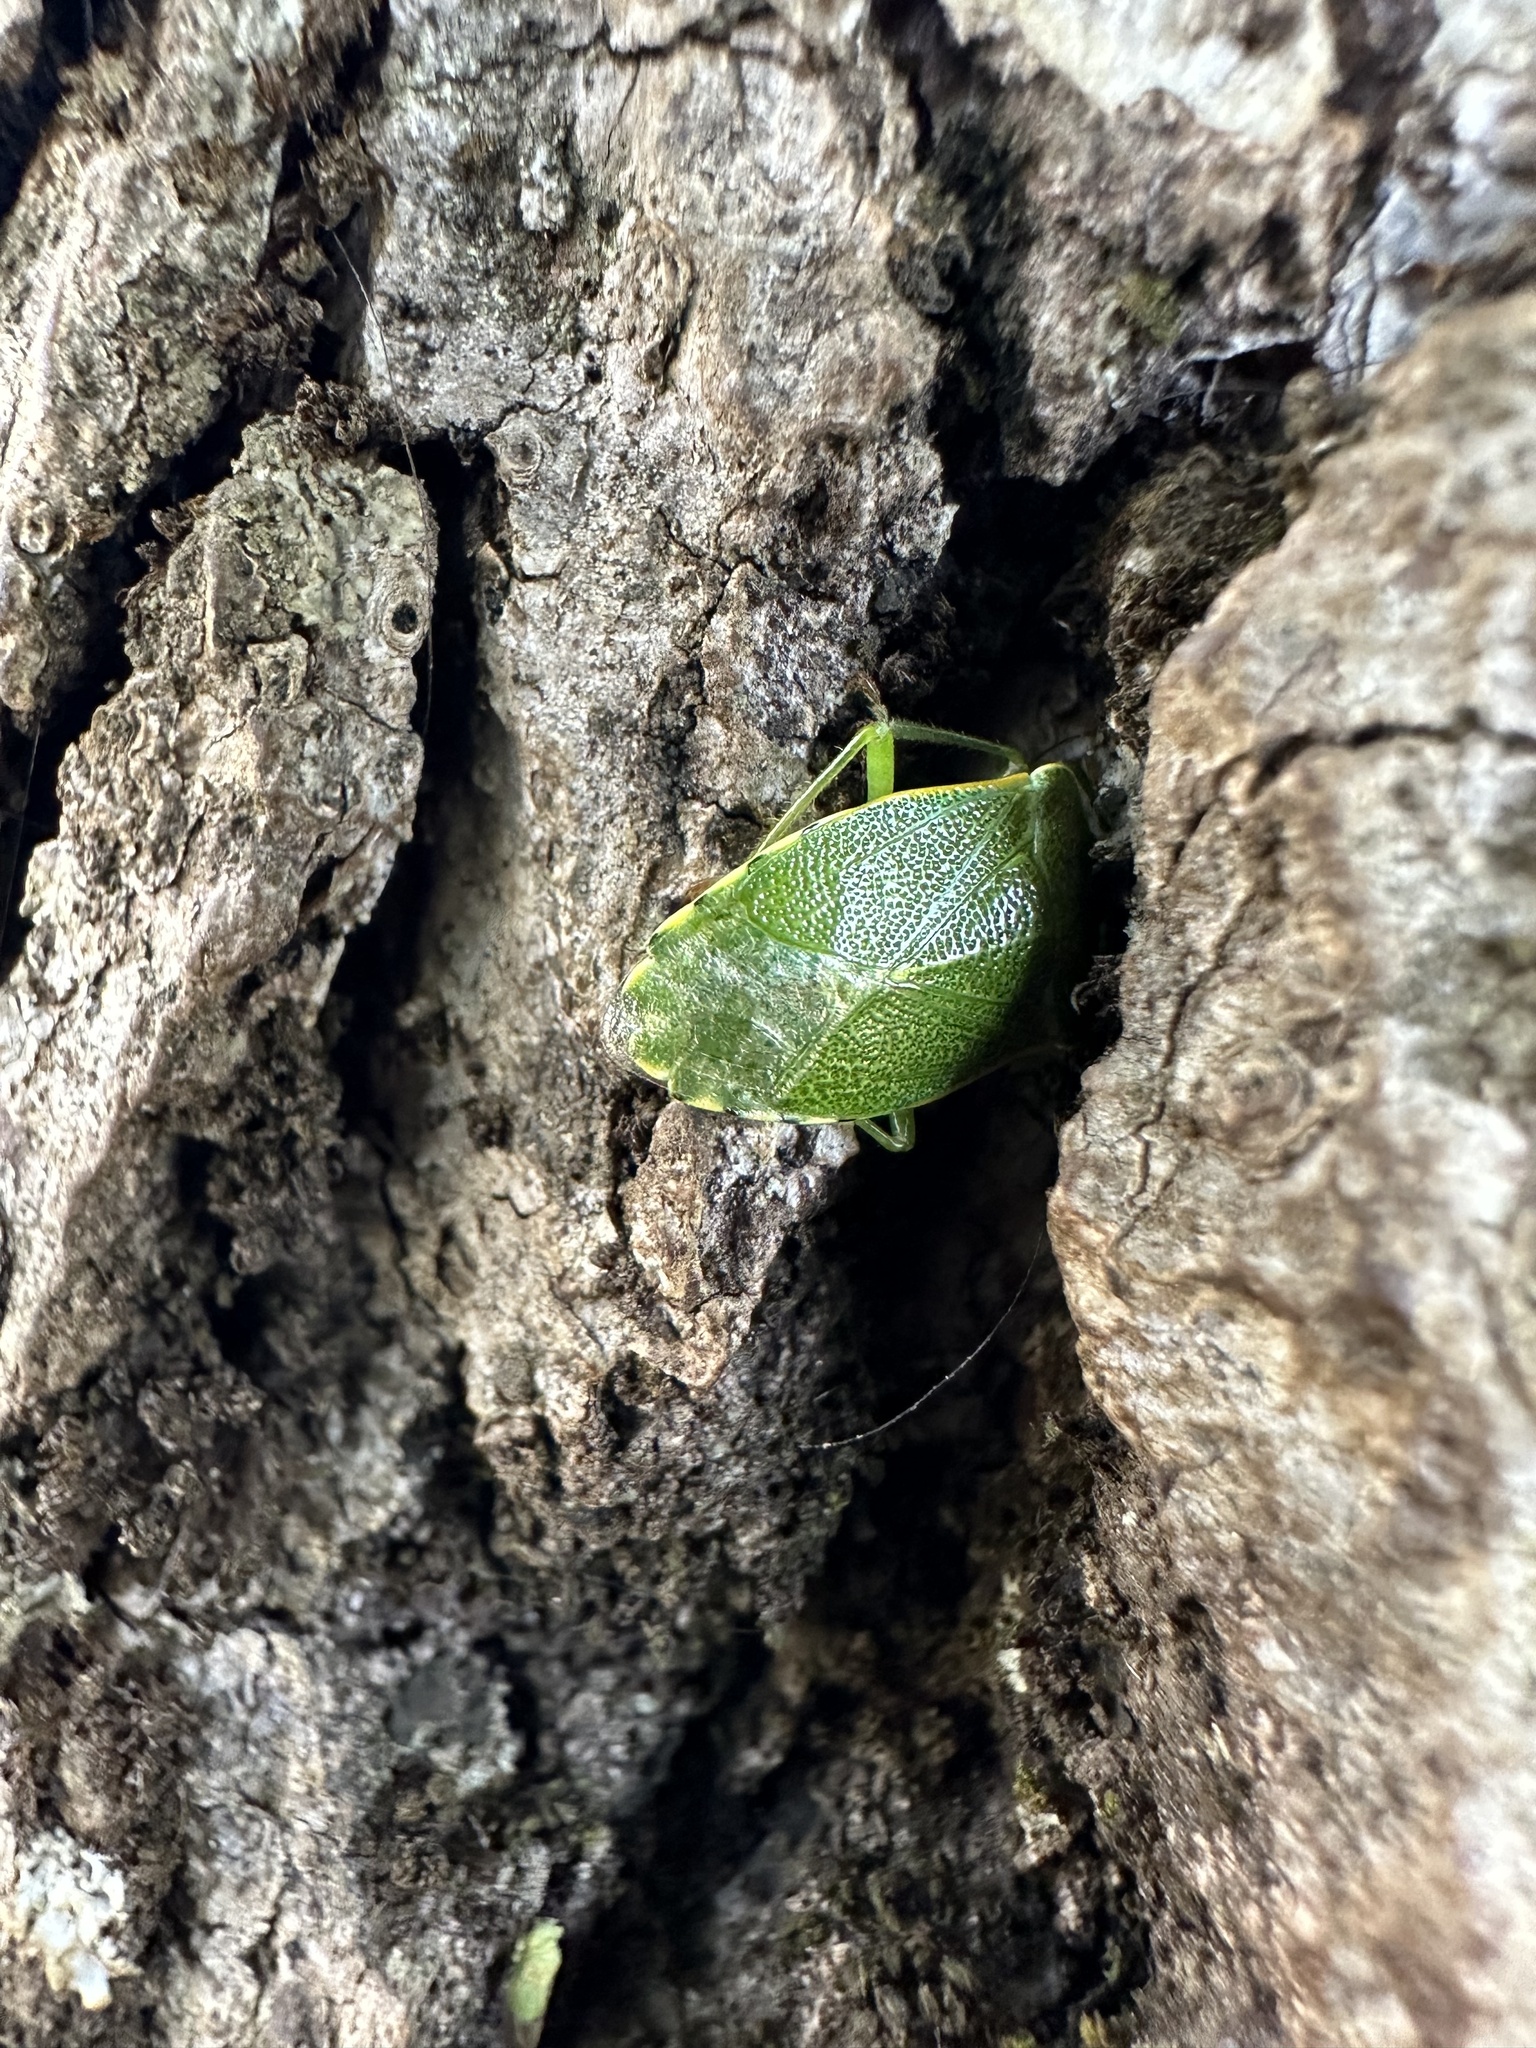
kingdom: Animalia
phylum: Arthropoda
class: Insecta
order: Hemiptera
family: Acanthosomatidae
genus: Sinopla
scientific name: Sinopla perpunctatus
